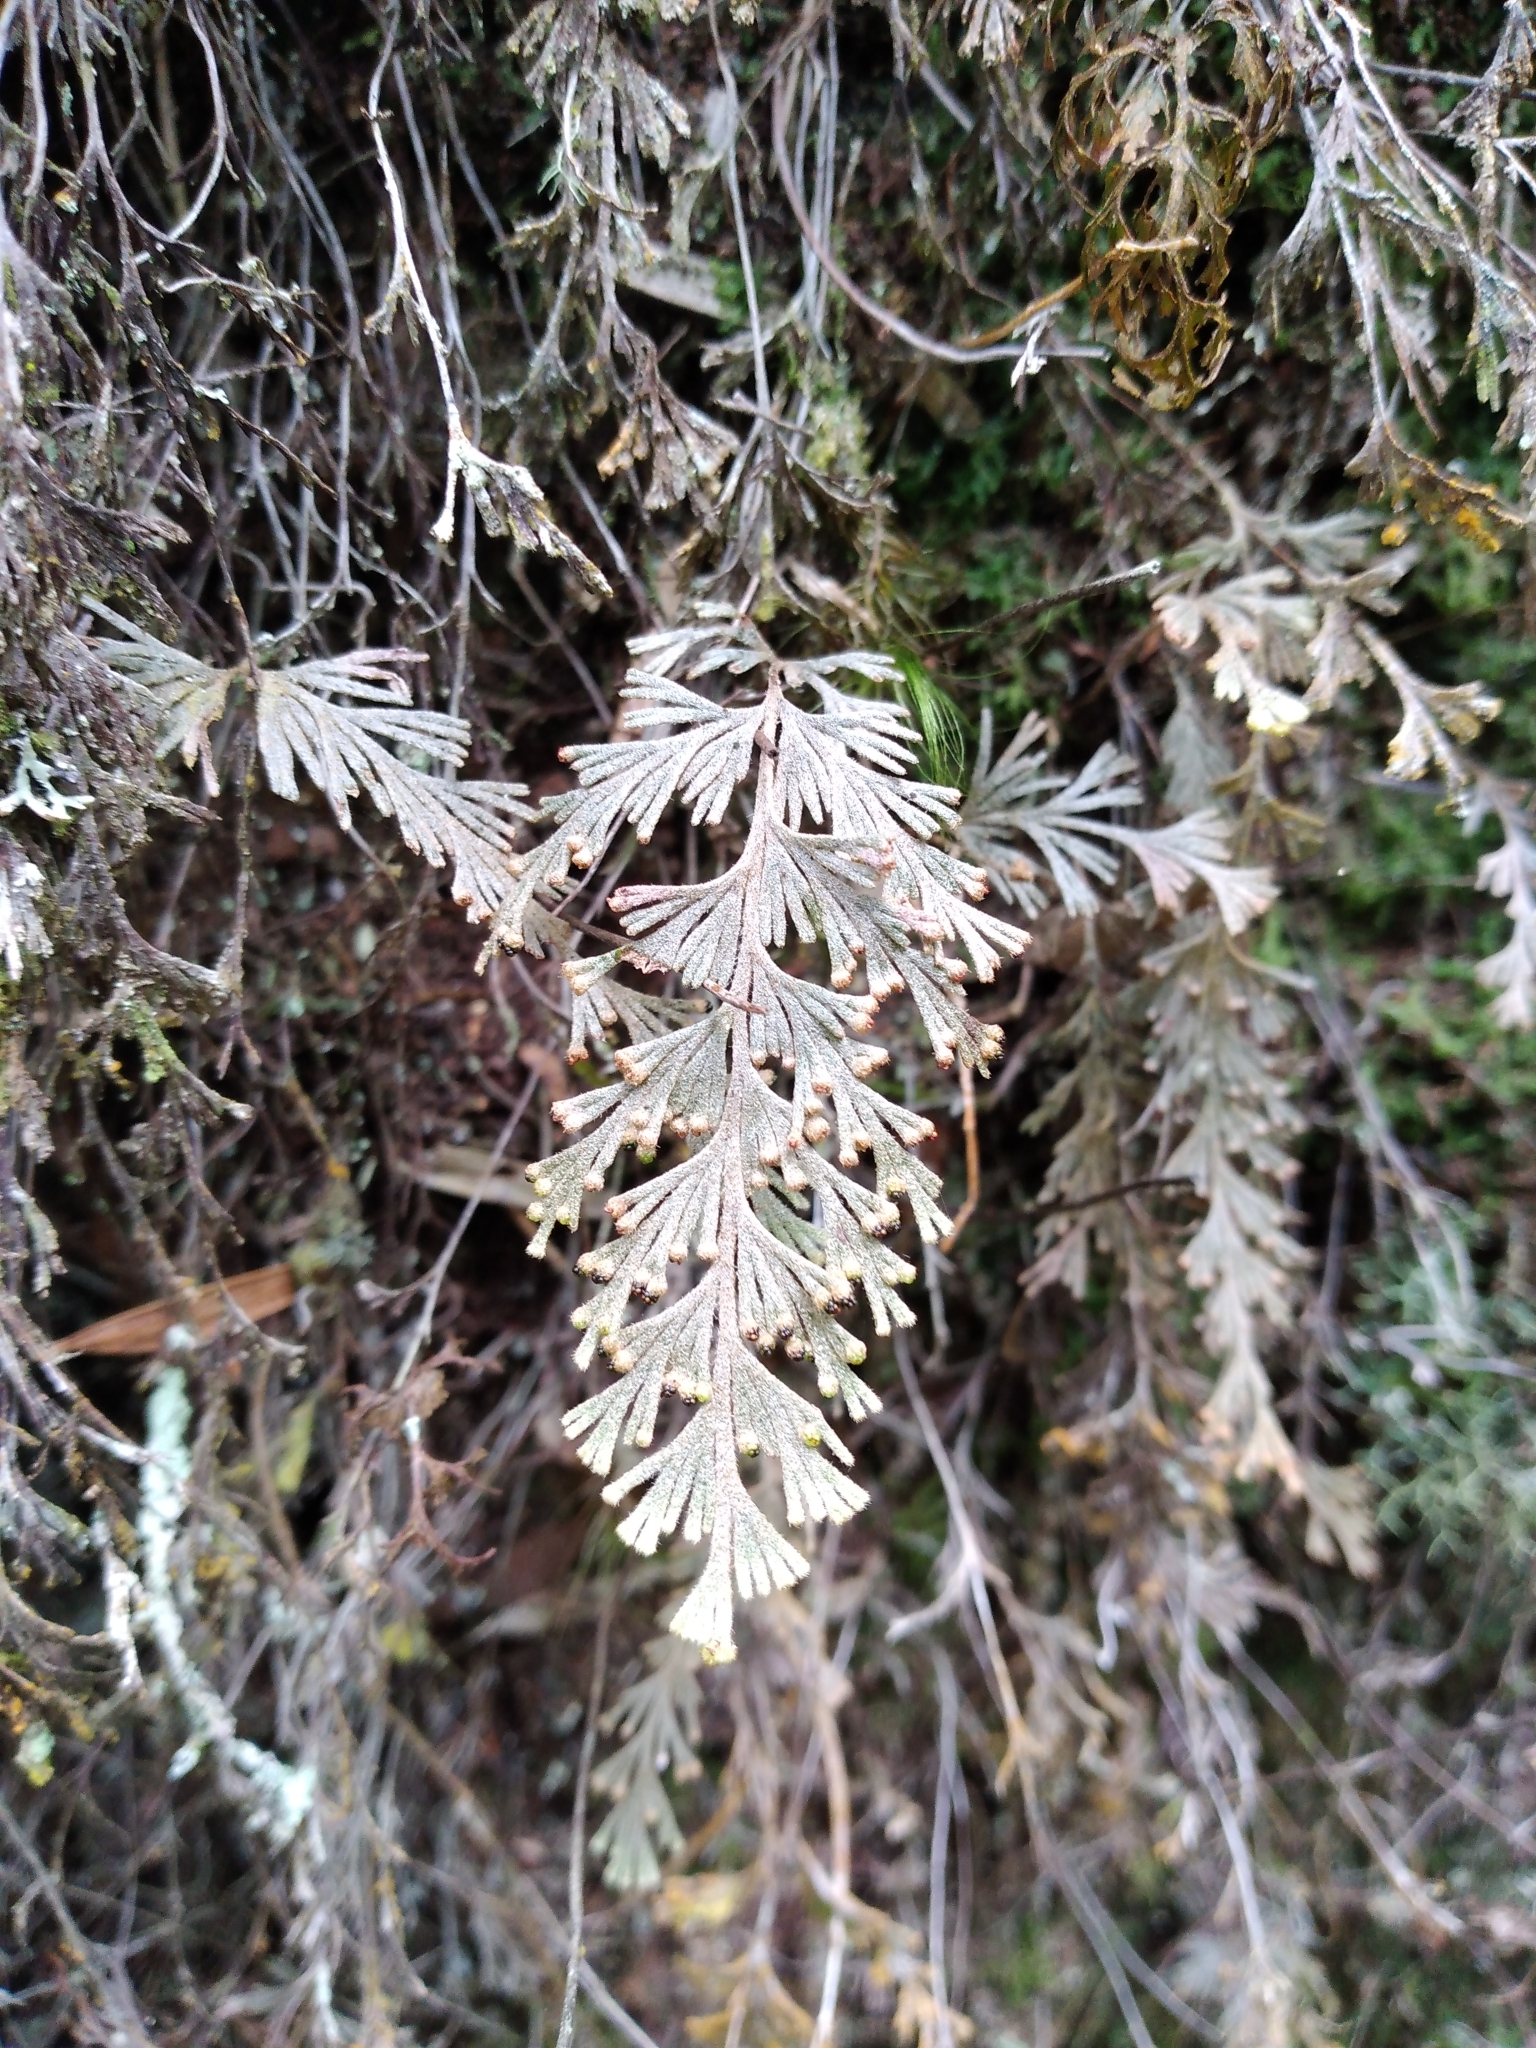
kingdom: Plantae
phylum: Tracheophyta
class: Polypodiopsida
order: Hymenophyllales
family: Hymenophyllaceae
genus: Hymenophyllum
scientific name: Hymenophyllum malingii
